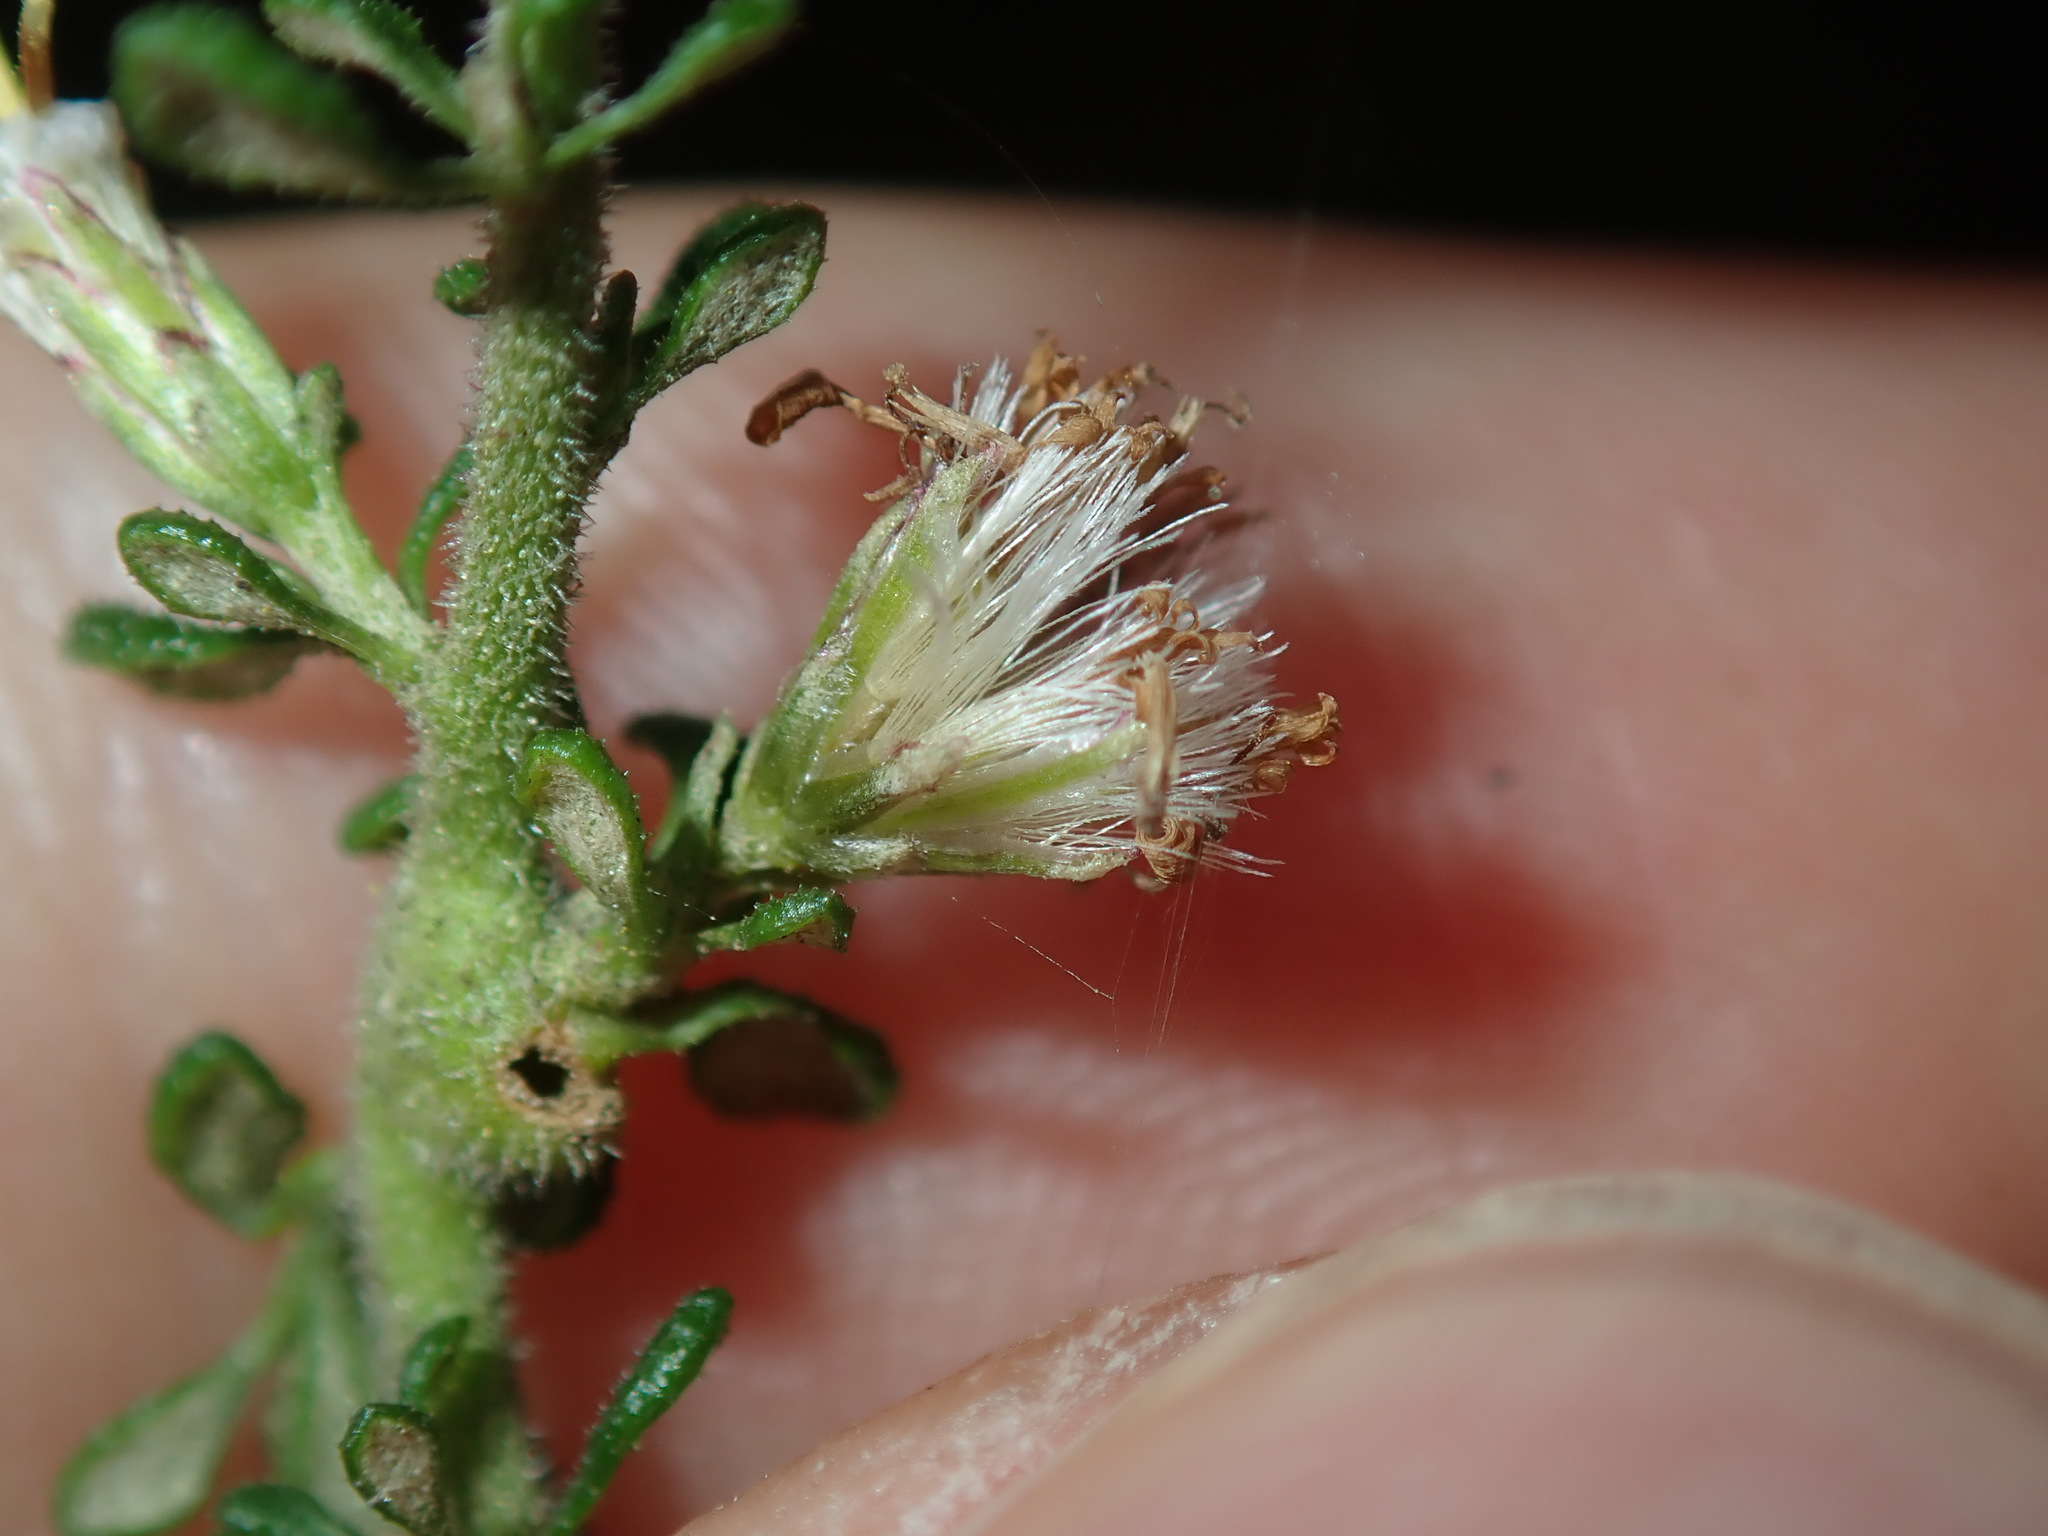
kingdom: Plantae
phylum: Tracheophyta
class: Magnoliopsida
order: Asterales
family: Asteraceae
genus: Olearia
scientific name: Olearia microphylla
